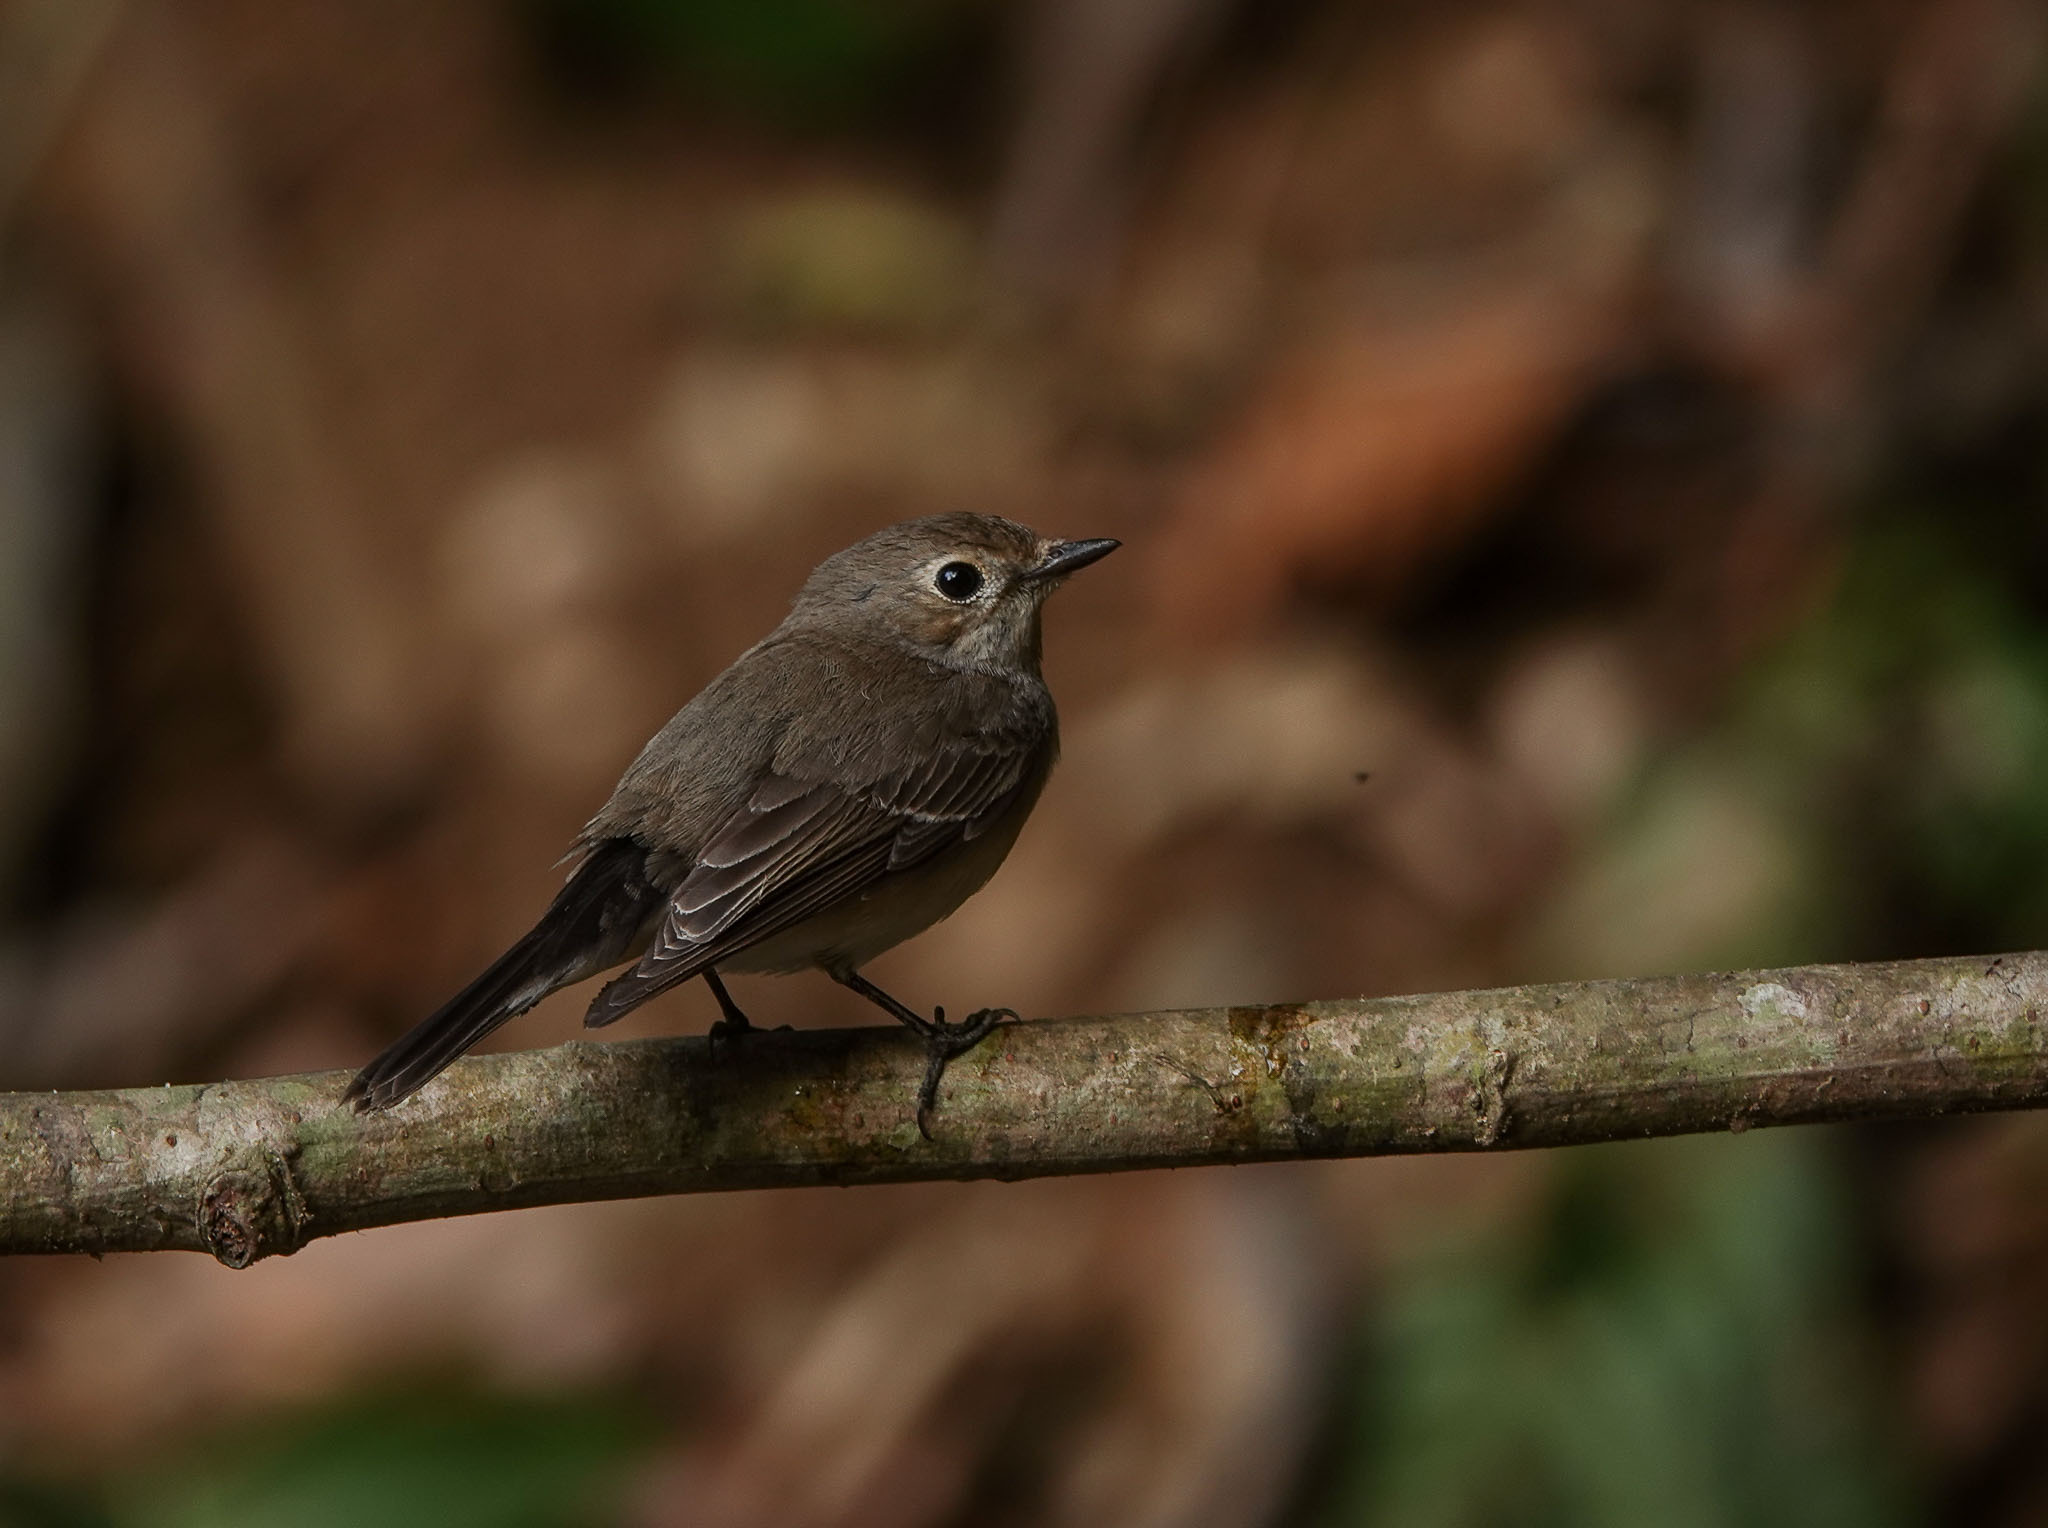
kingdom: Animalia
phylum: Chordata
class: Aves
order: Passeriformes
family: Muscicapidae
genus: Ficedula
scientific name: Ficedula albicilla
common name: Taiga flycatcher
